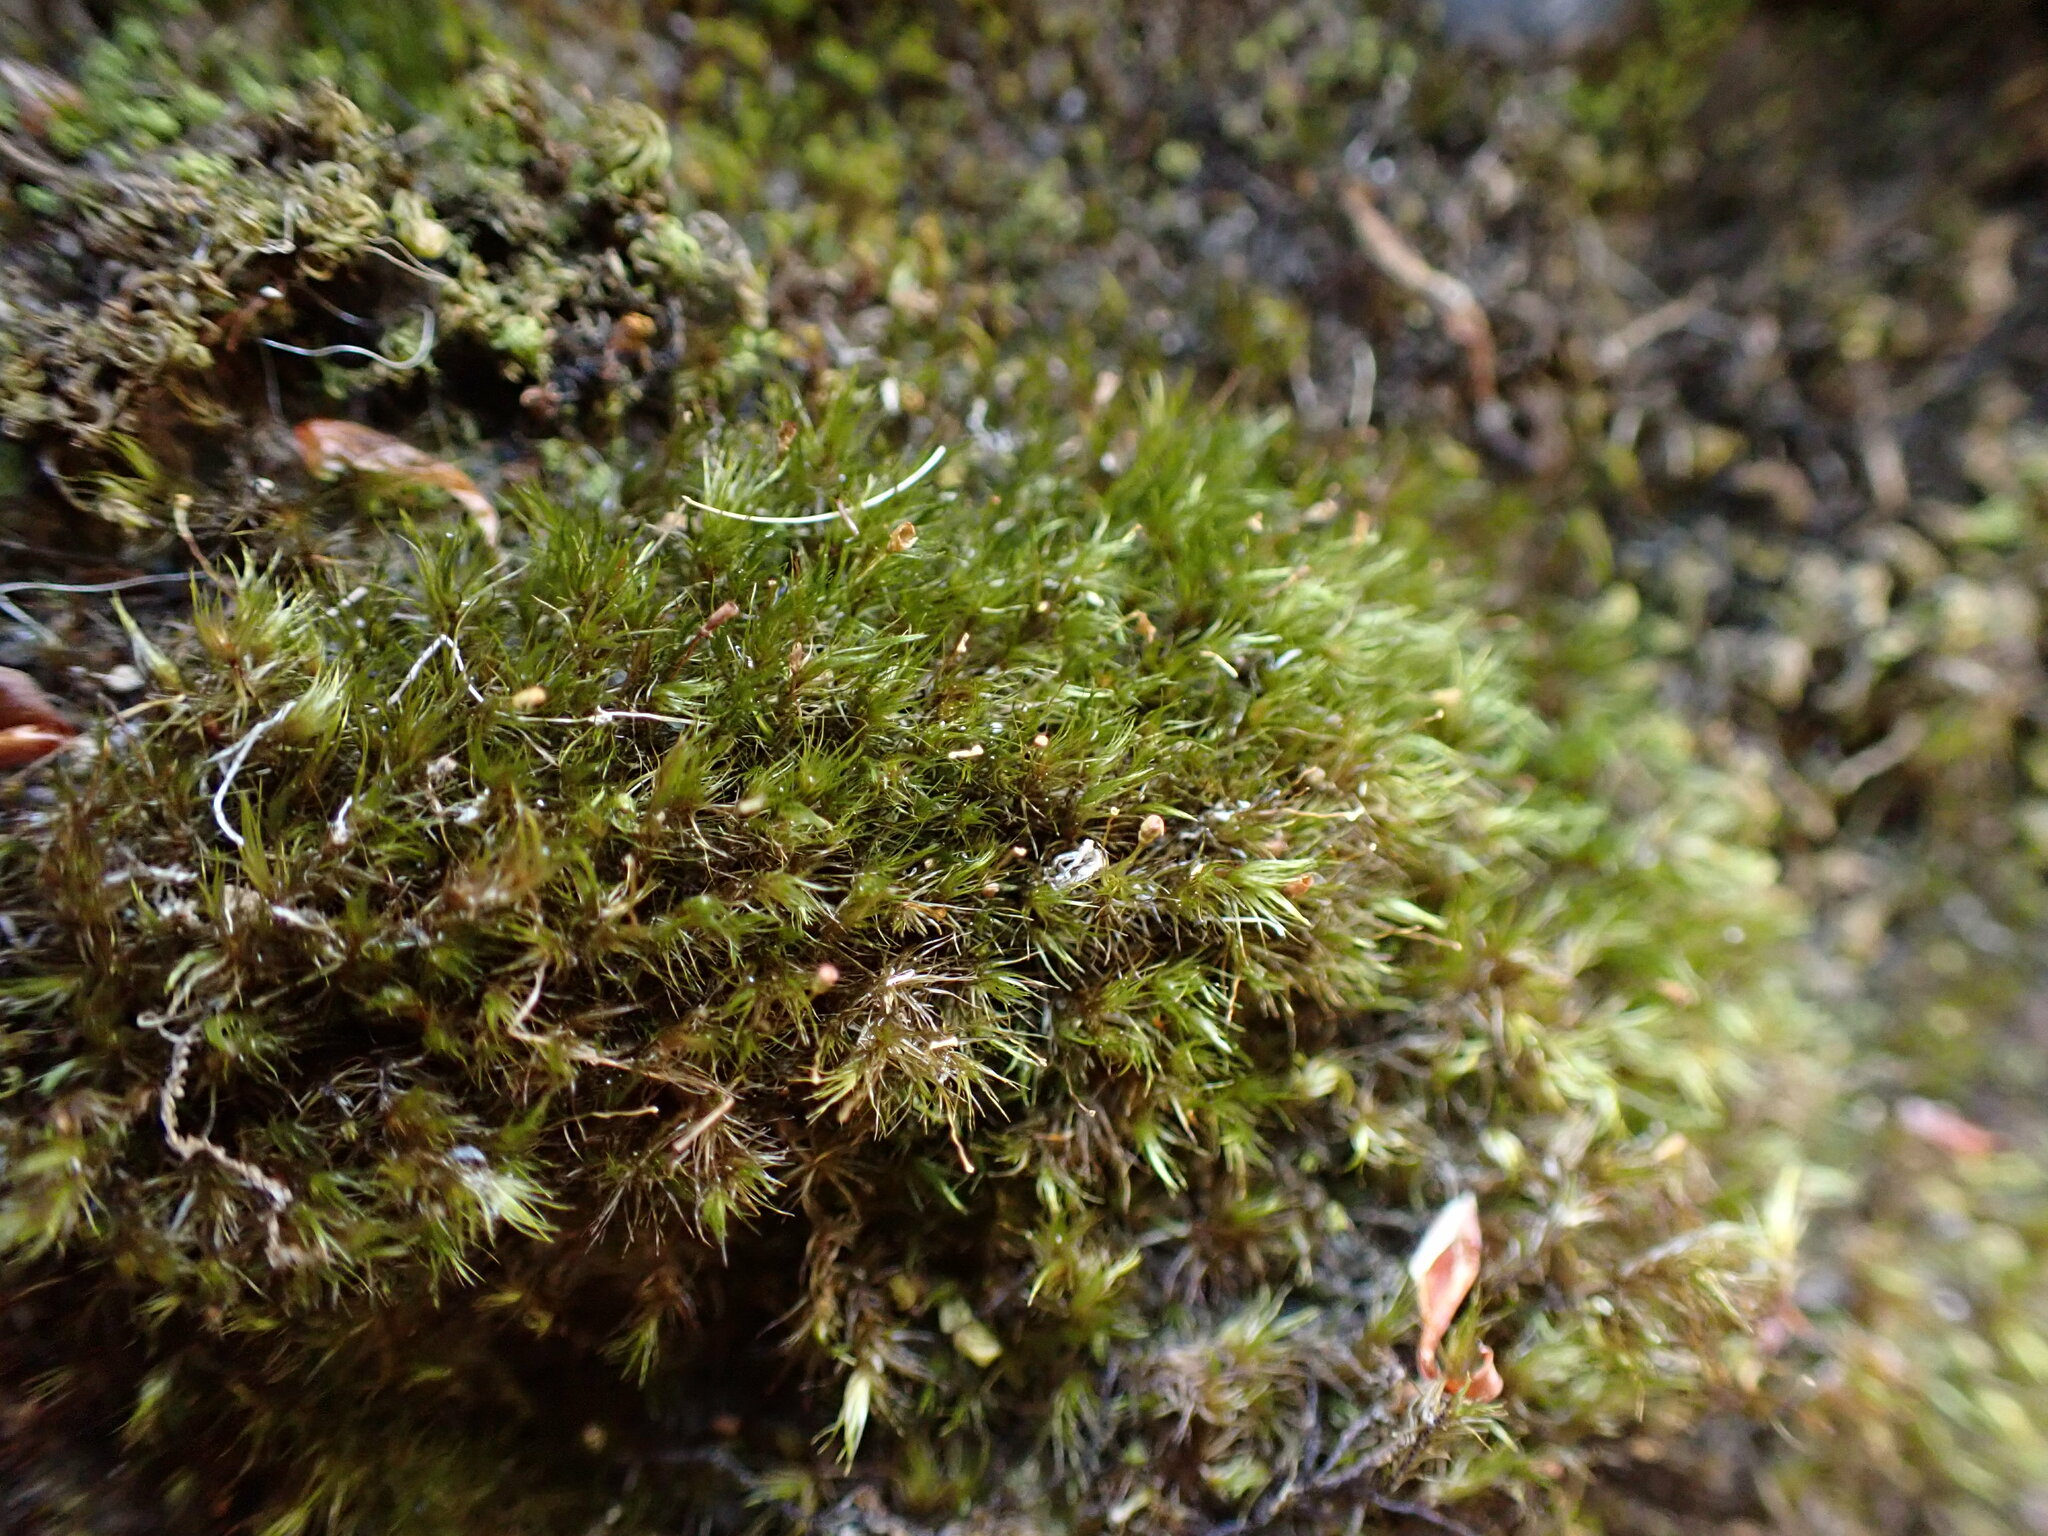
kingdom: Plantae
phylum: Bryophyta
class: Bryopsida
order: Grimmiales
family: Seligeriaceae
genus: Blindia
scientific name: Blindia acuta
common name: Sharp-leaved blind's moss
